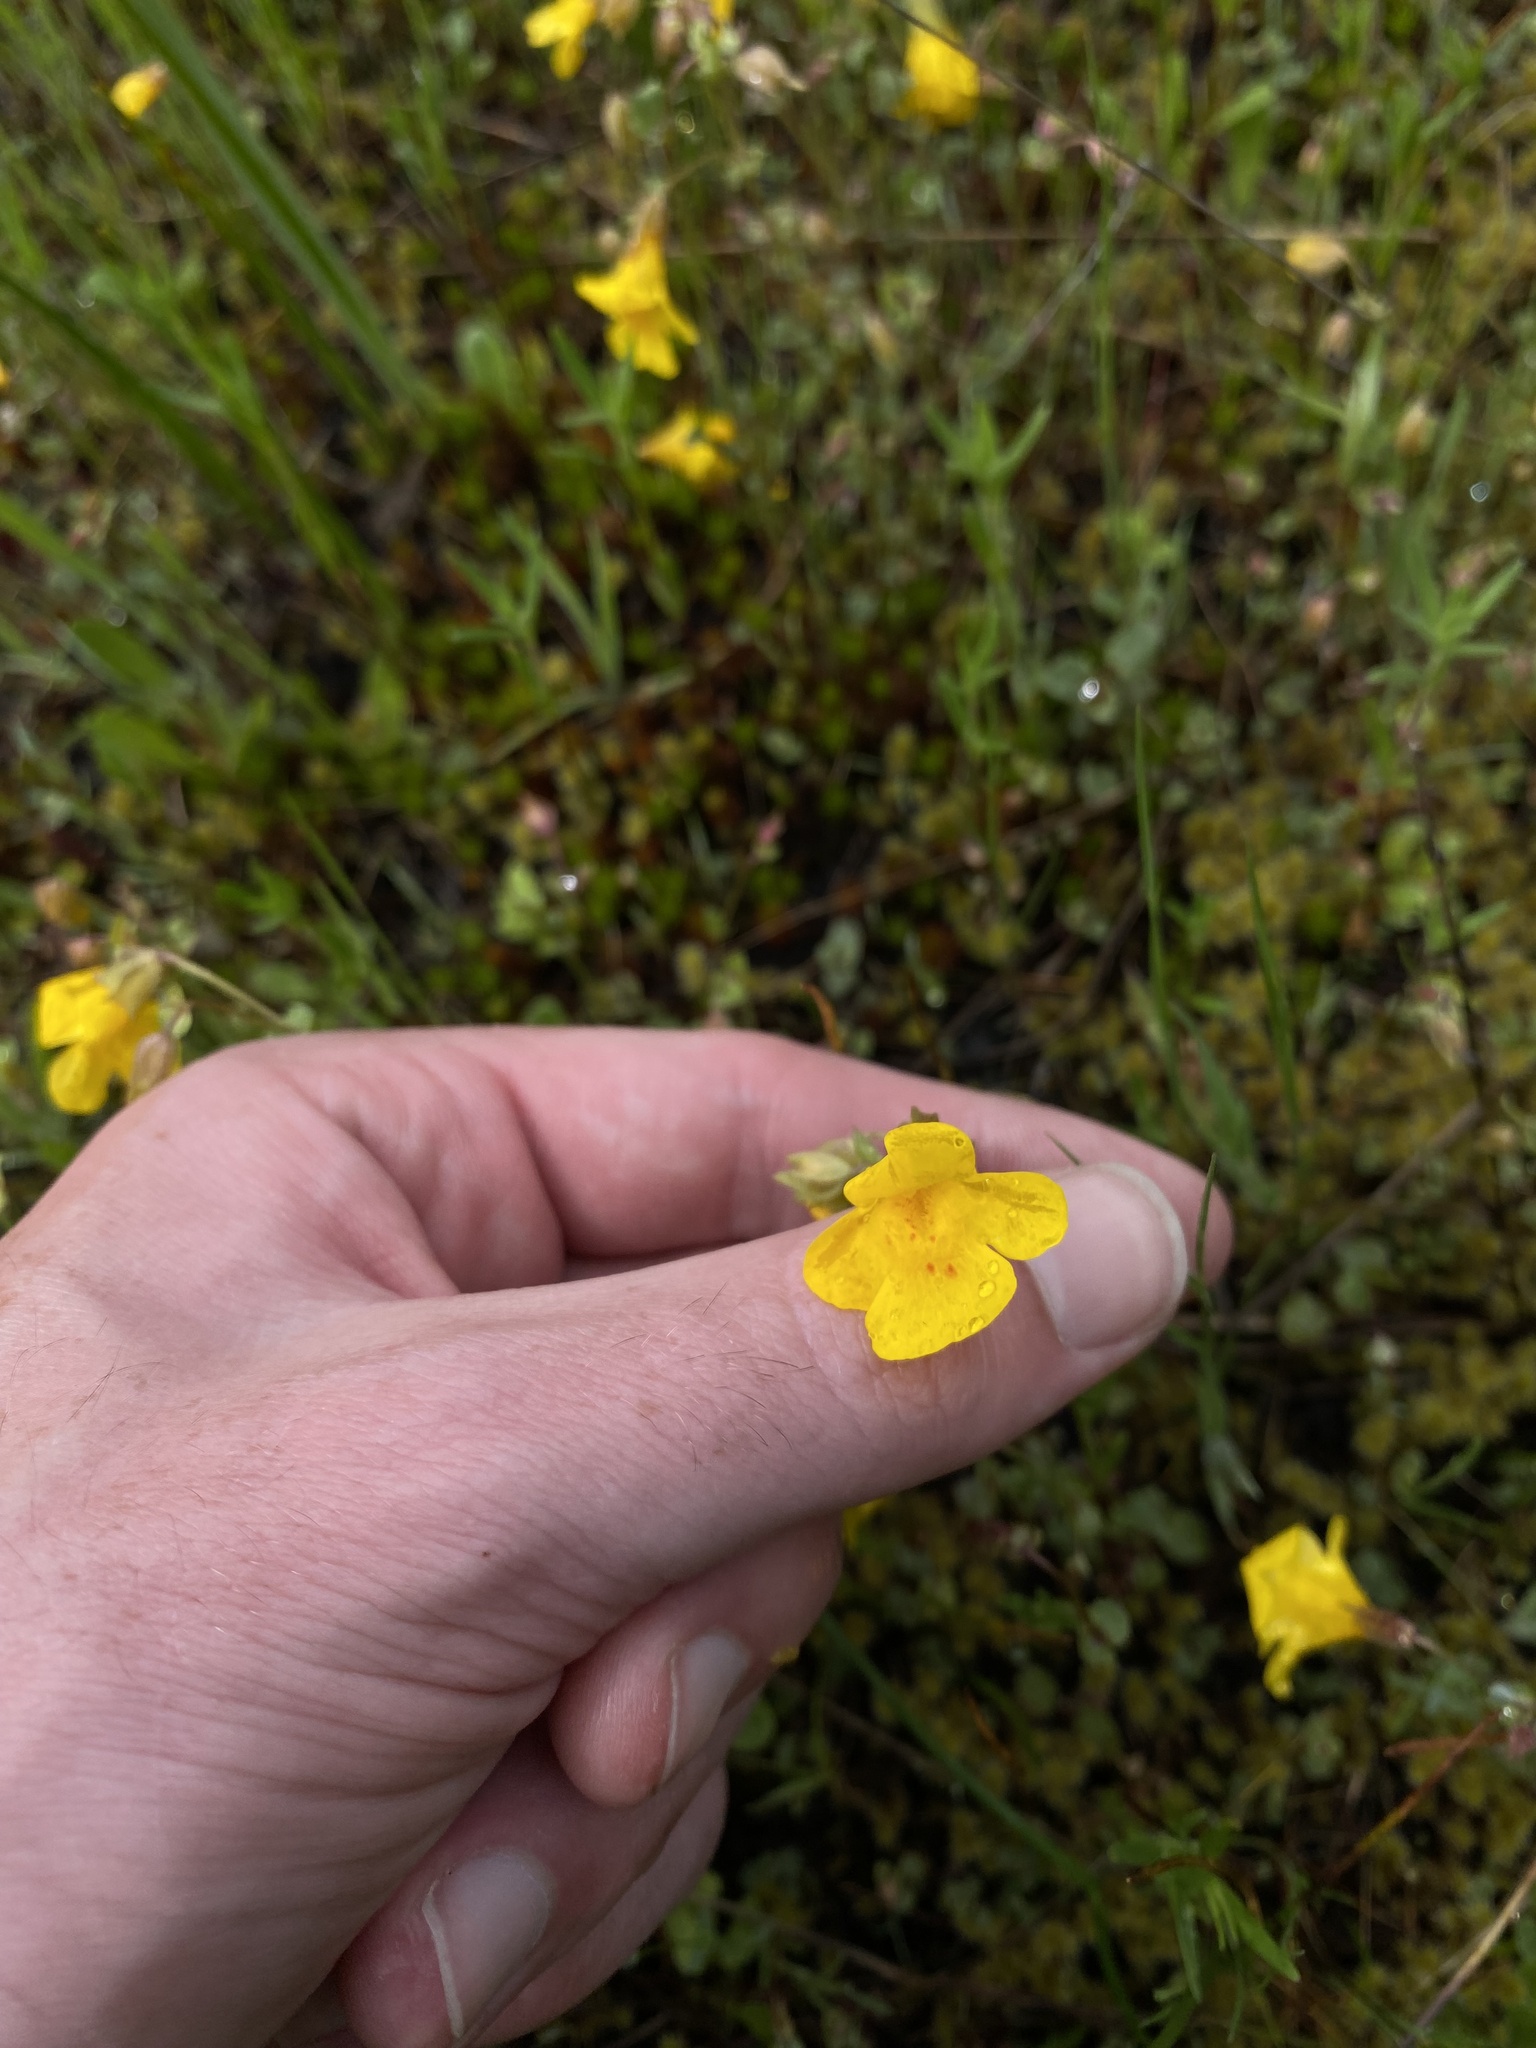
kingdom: Plantae
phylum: Tracheophyta
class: Magnoliopsida
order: Lamiales
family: Phrymaceae
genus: Erythranthe
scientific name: Erythranthe microphylla
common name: Bentham's monkeyflower
